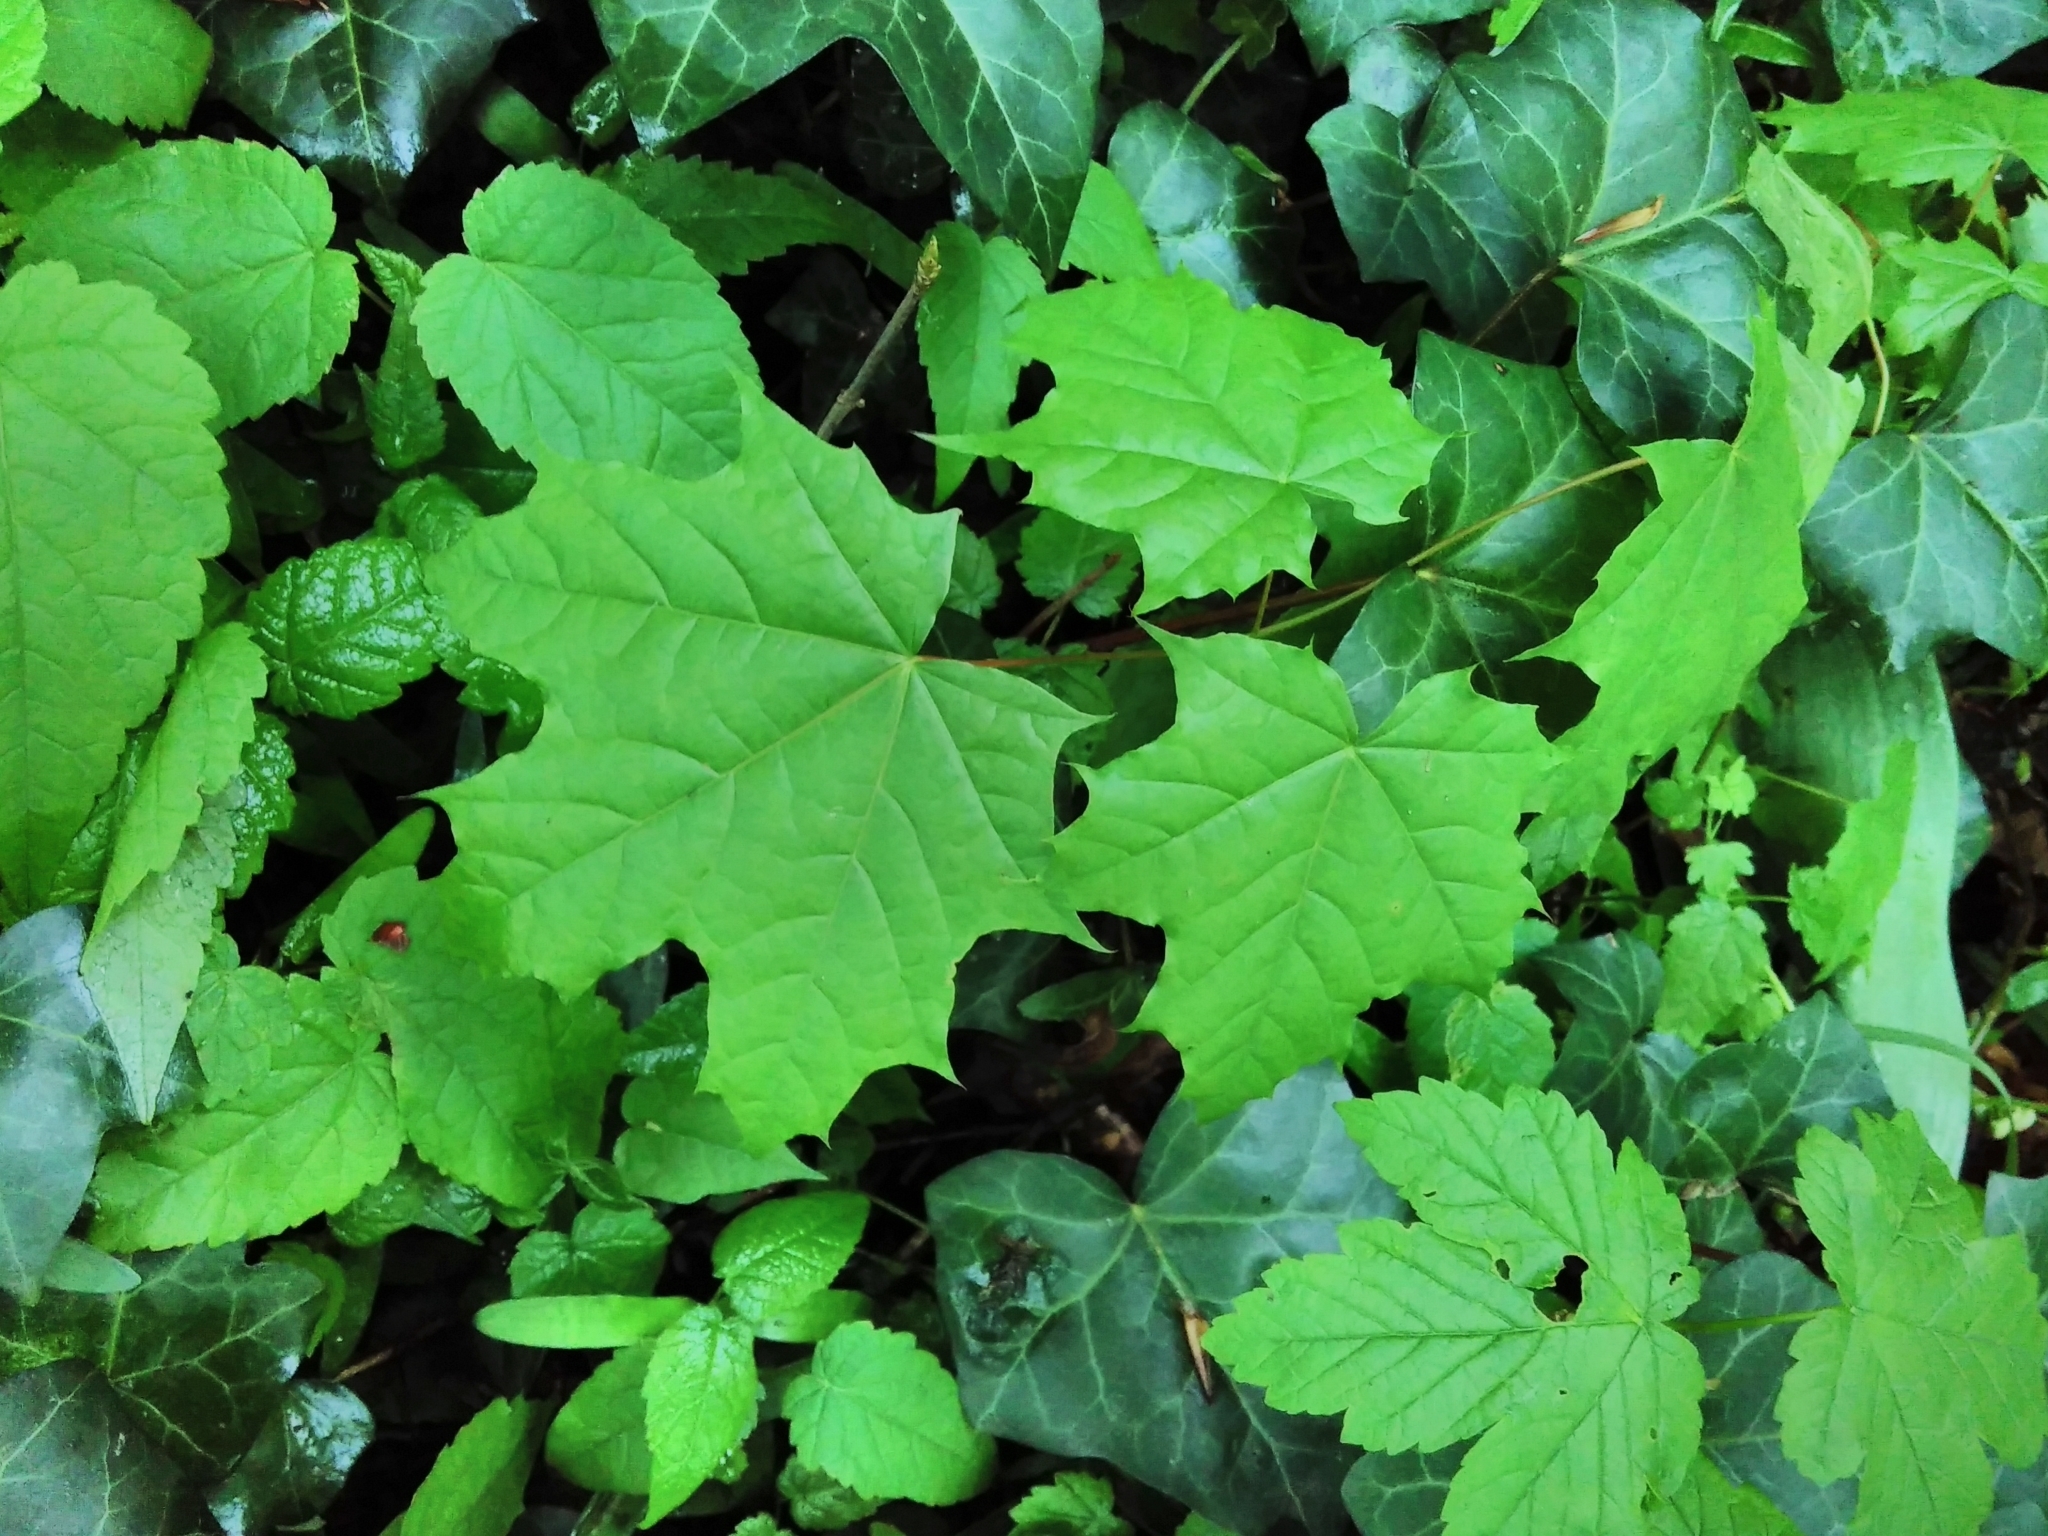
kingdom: Plantae
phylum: Tracheophyta
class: Magnoliopsida
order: Sapindales
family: Sapindaceae
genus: Acer
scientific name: Acer platanoides
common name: Norway maple
